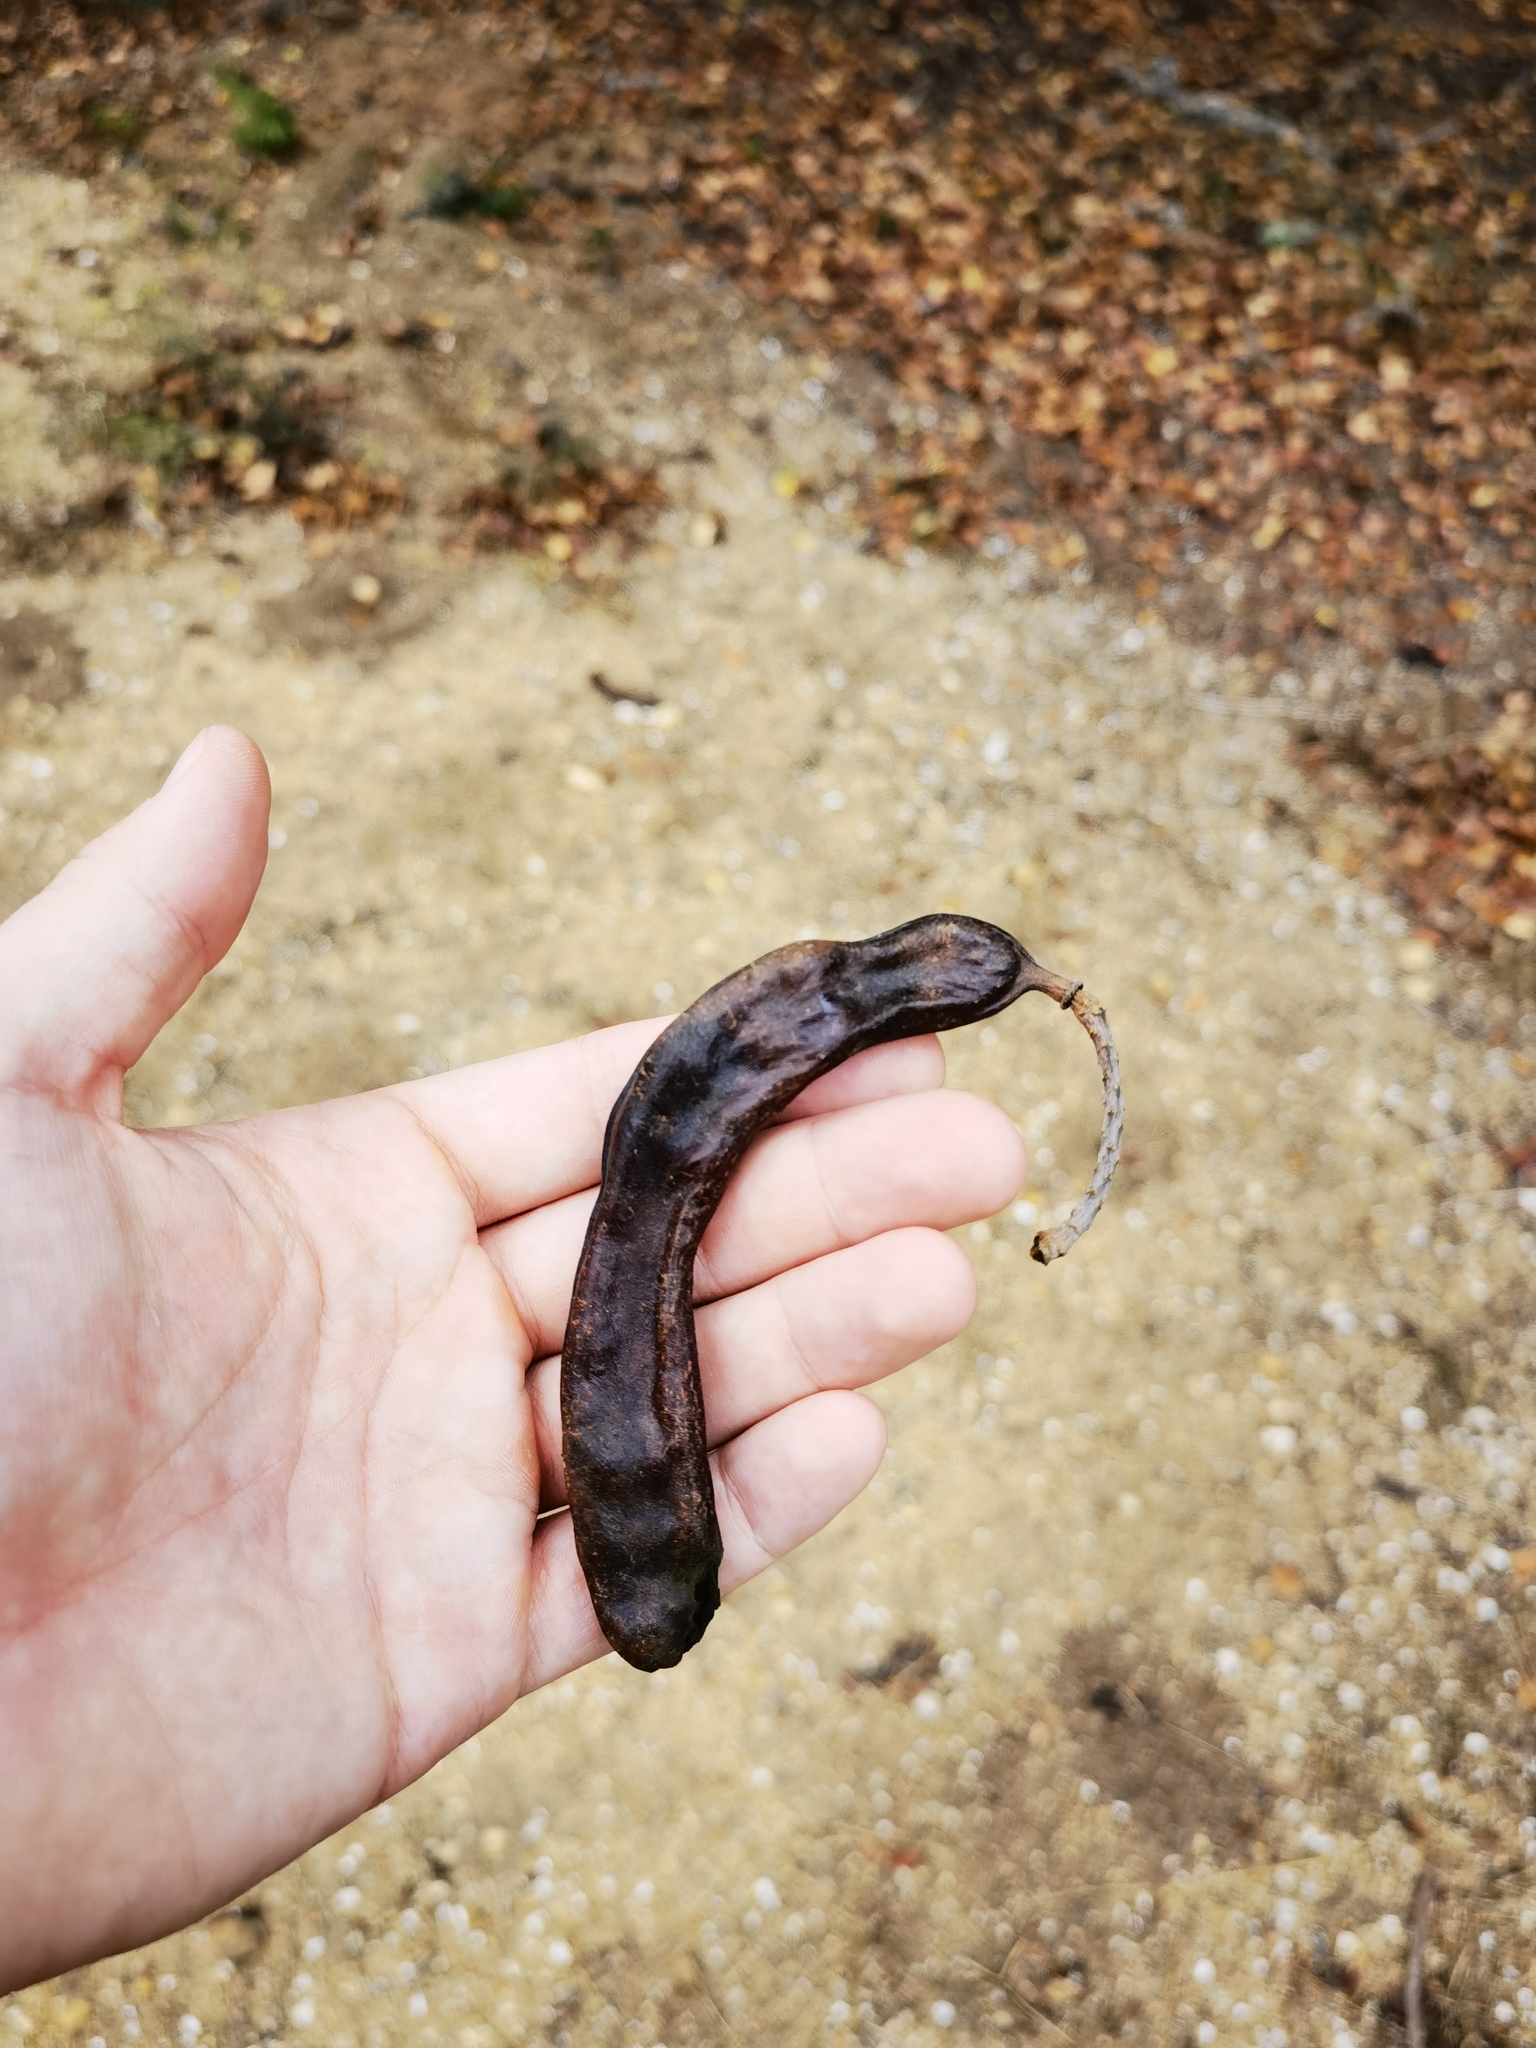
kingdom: Plantae
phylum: Tracheophyta
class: Magnoliopsida
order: Fabales
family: Fabaceae
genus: Ceratonia
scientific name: Ceratonia siliqua
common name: Carob
